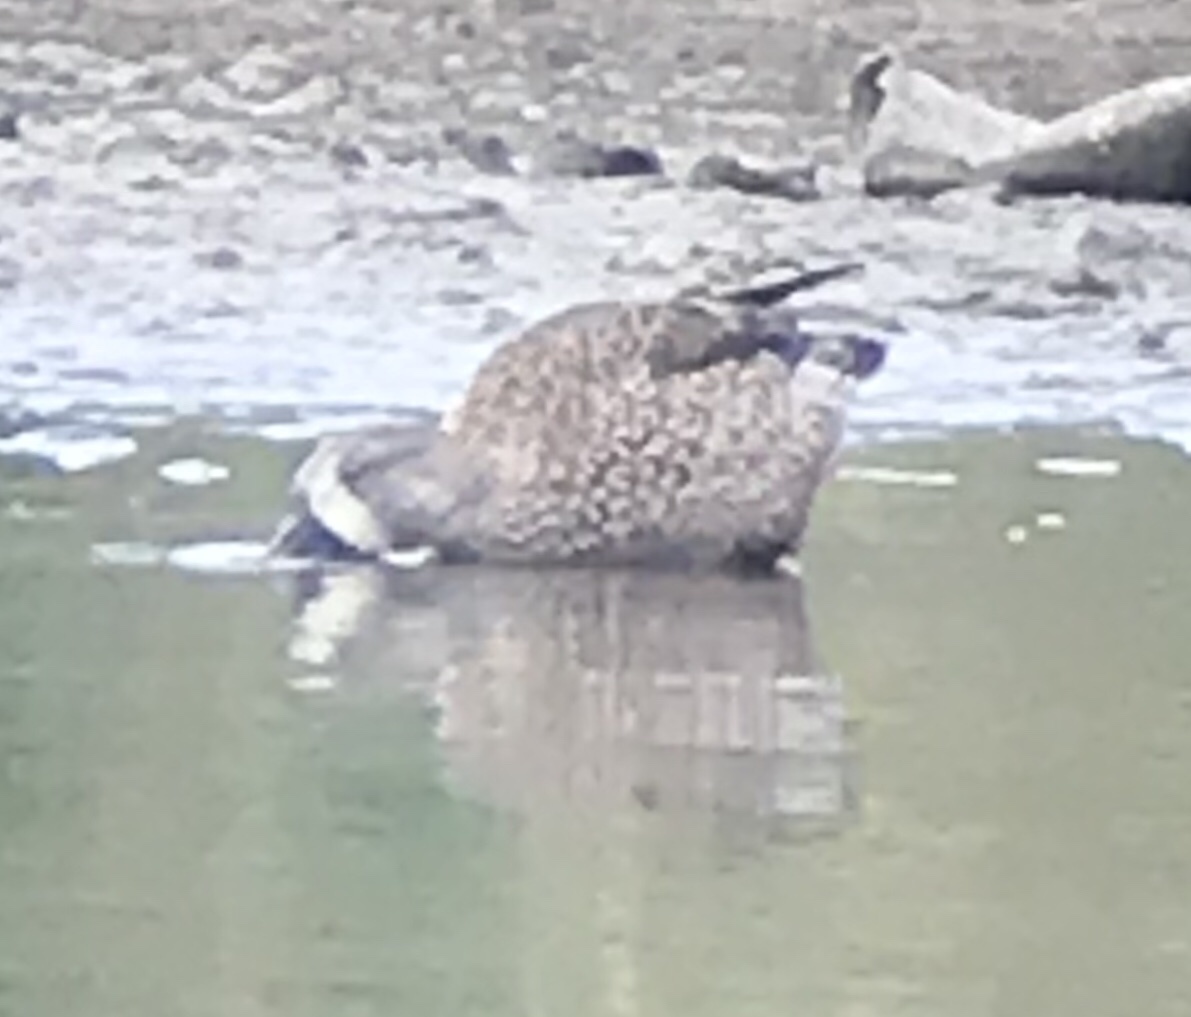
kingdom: Animalia
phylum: Chordata
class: Aves
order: Anseriformes
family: Anatidae
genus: Spatula
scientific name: Spatula discors
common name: Blue-winged teal
